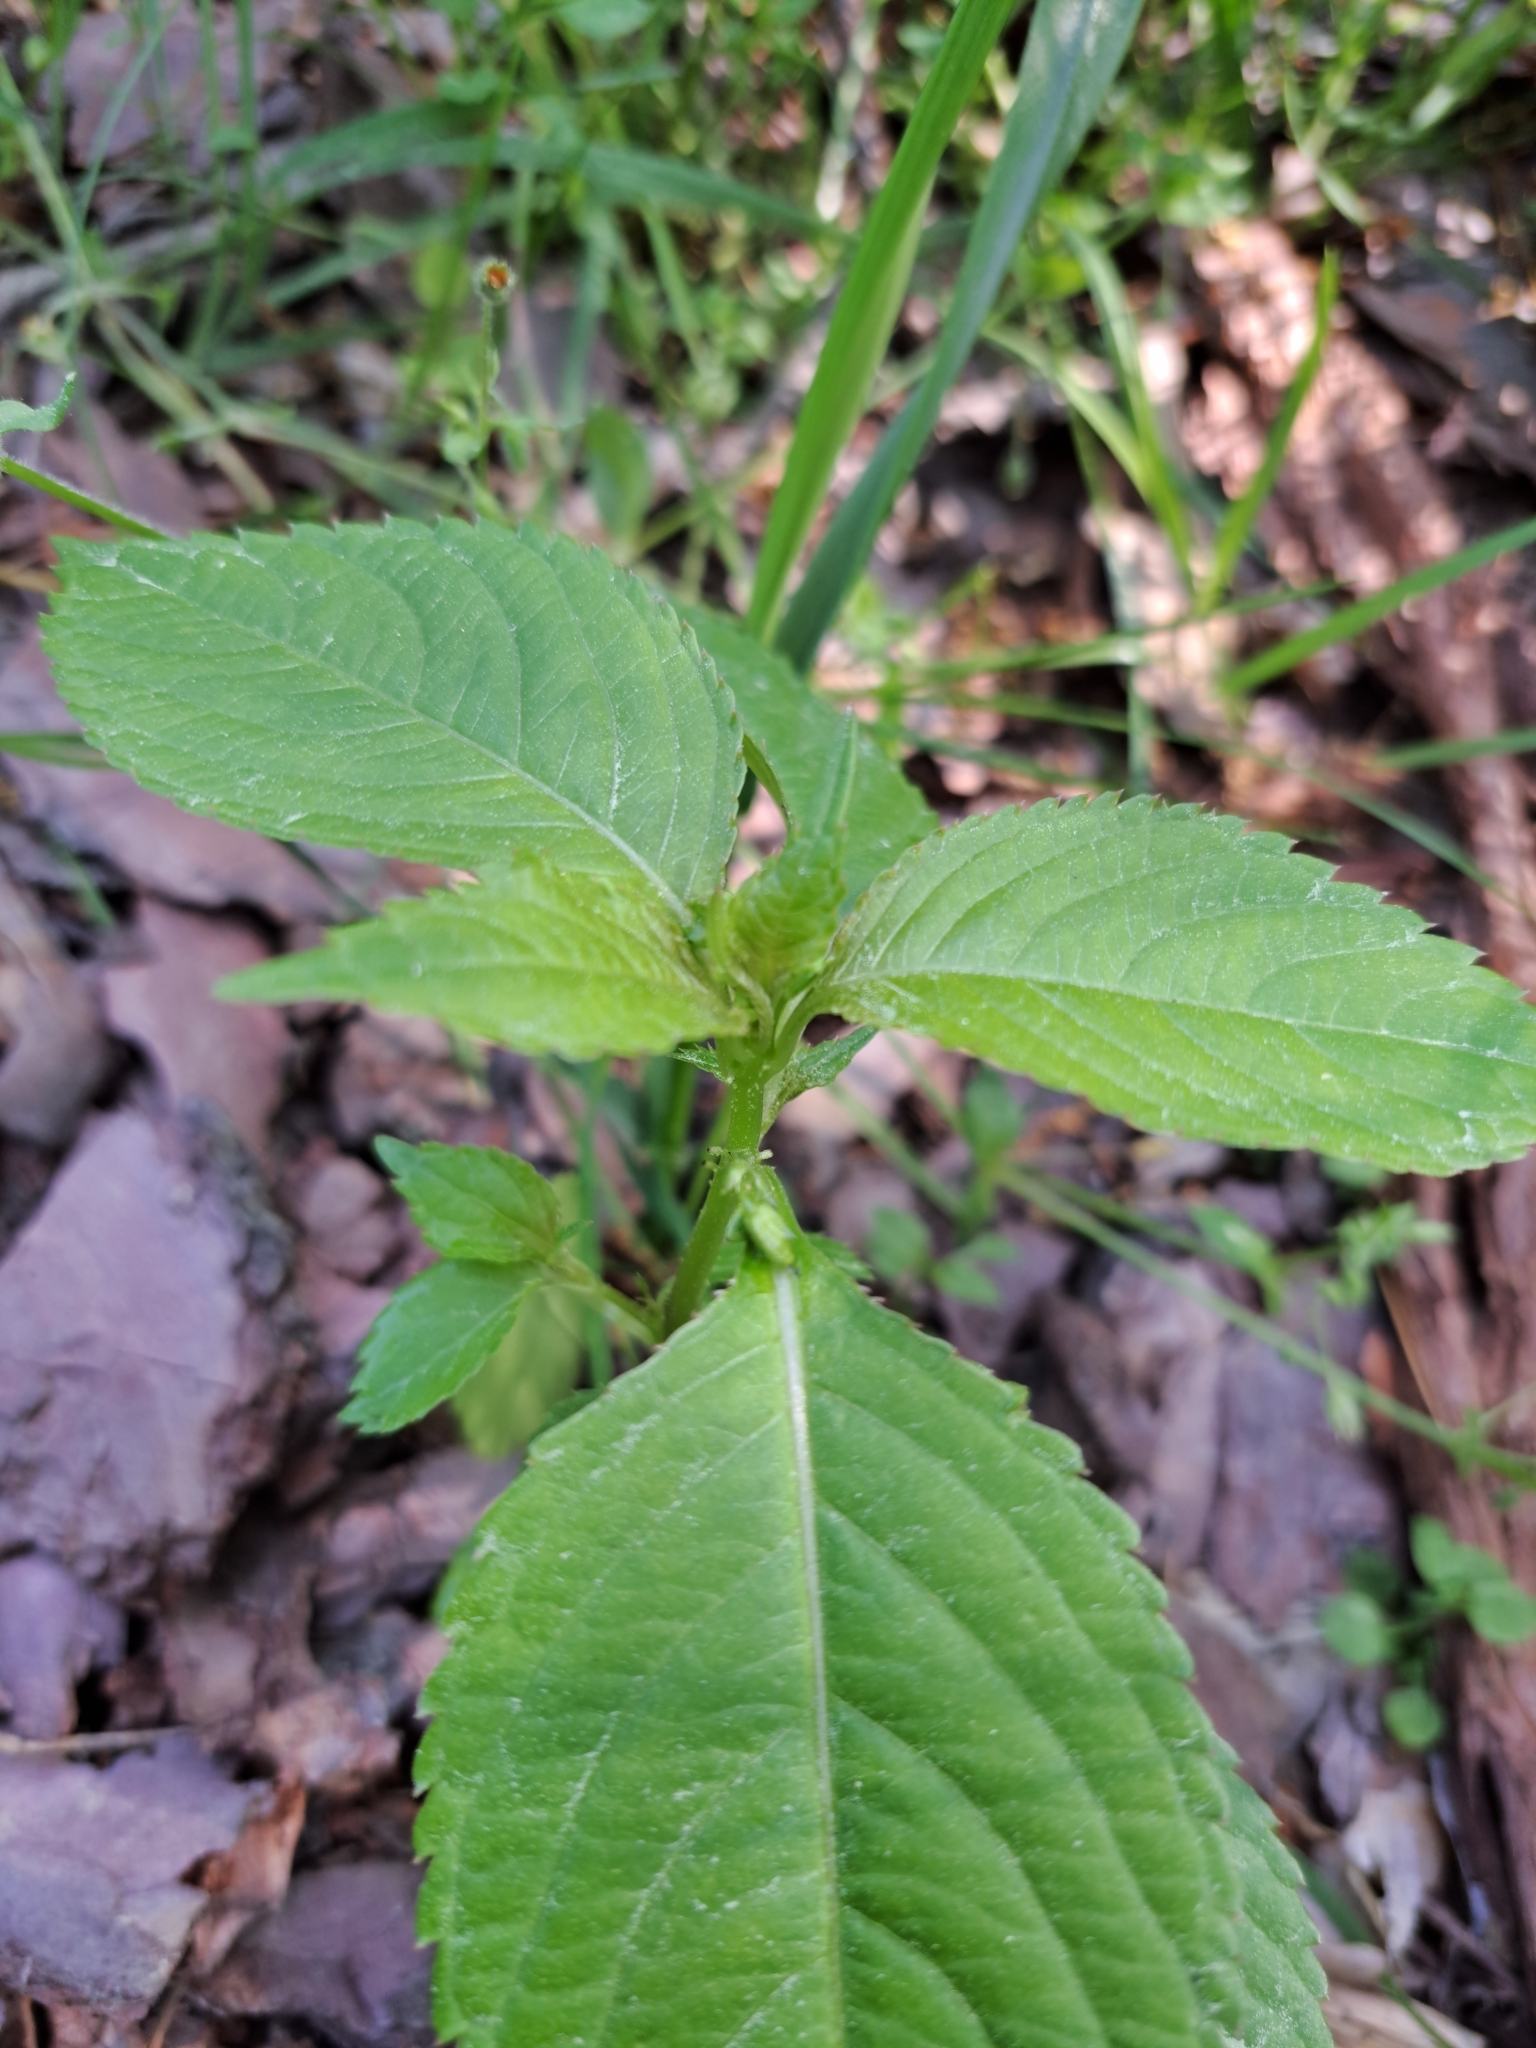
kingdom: Plantae
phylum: Tracheophyta
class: Magnoliopsida
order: Ericales
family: Balsaminaceae
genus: Impatiens
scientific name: Impatiens parviflora
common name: Small balsam
